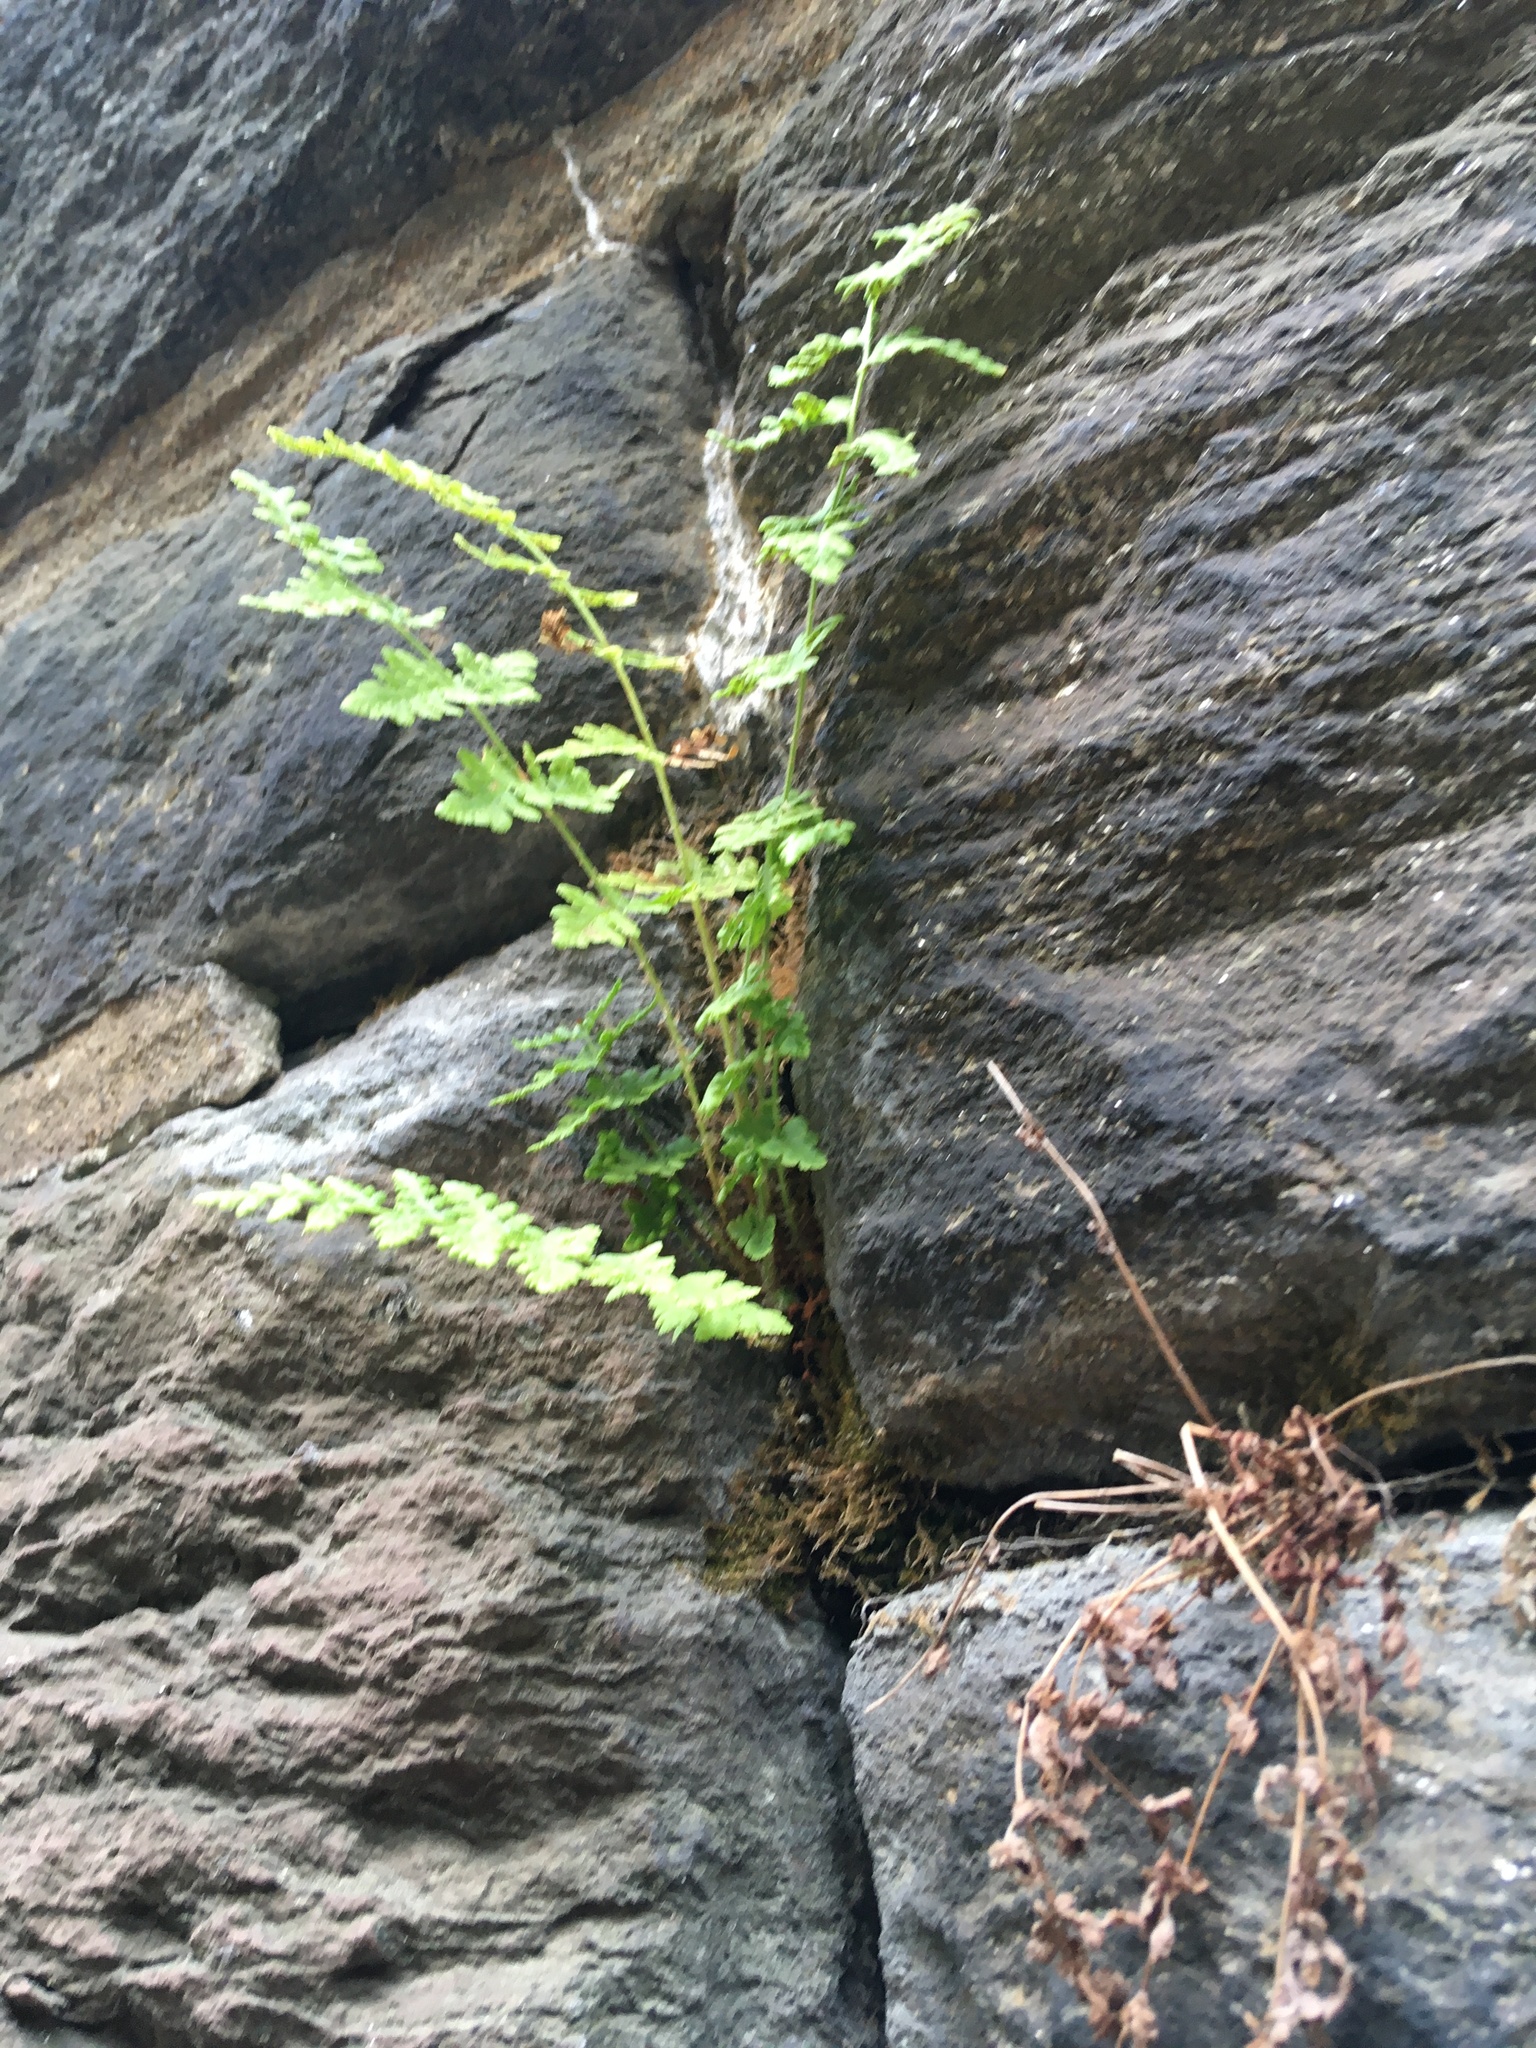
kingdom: Plantae
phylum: Tracheophyta
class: Polypodiopsida
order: Polypodiales
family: Woodsiaceae
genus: Physematium
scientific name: Physematium obtusum
